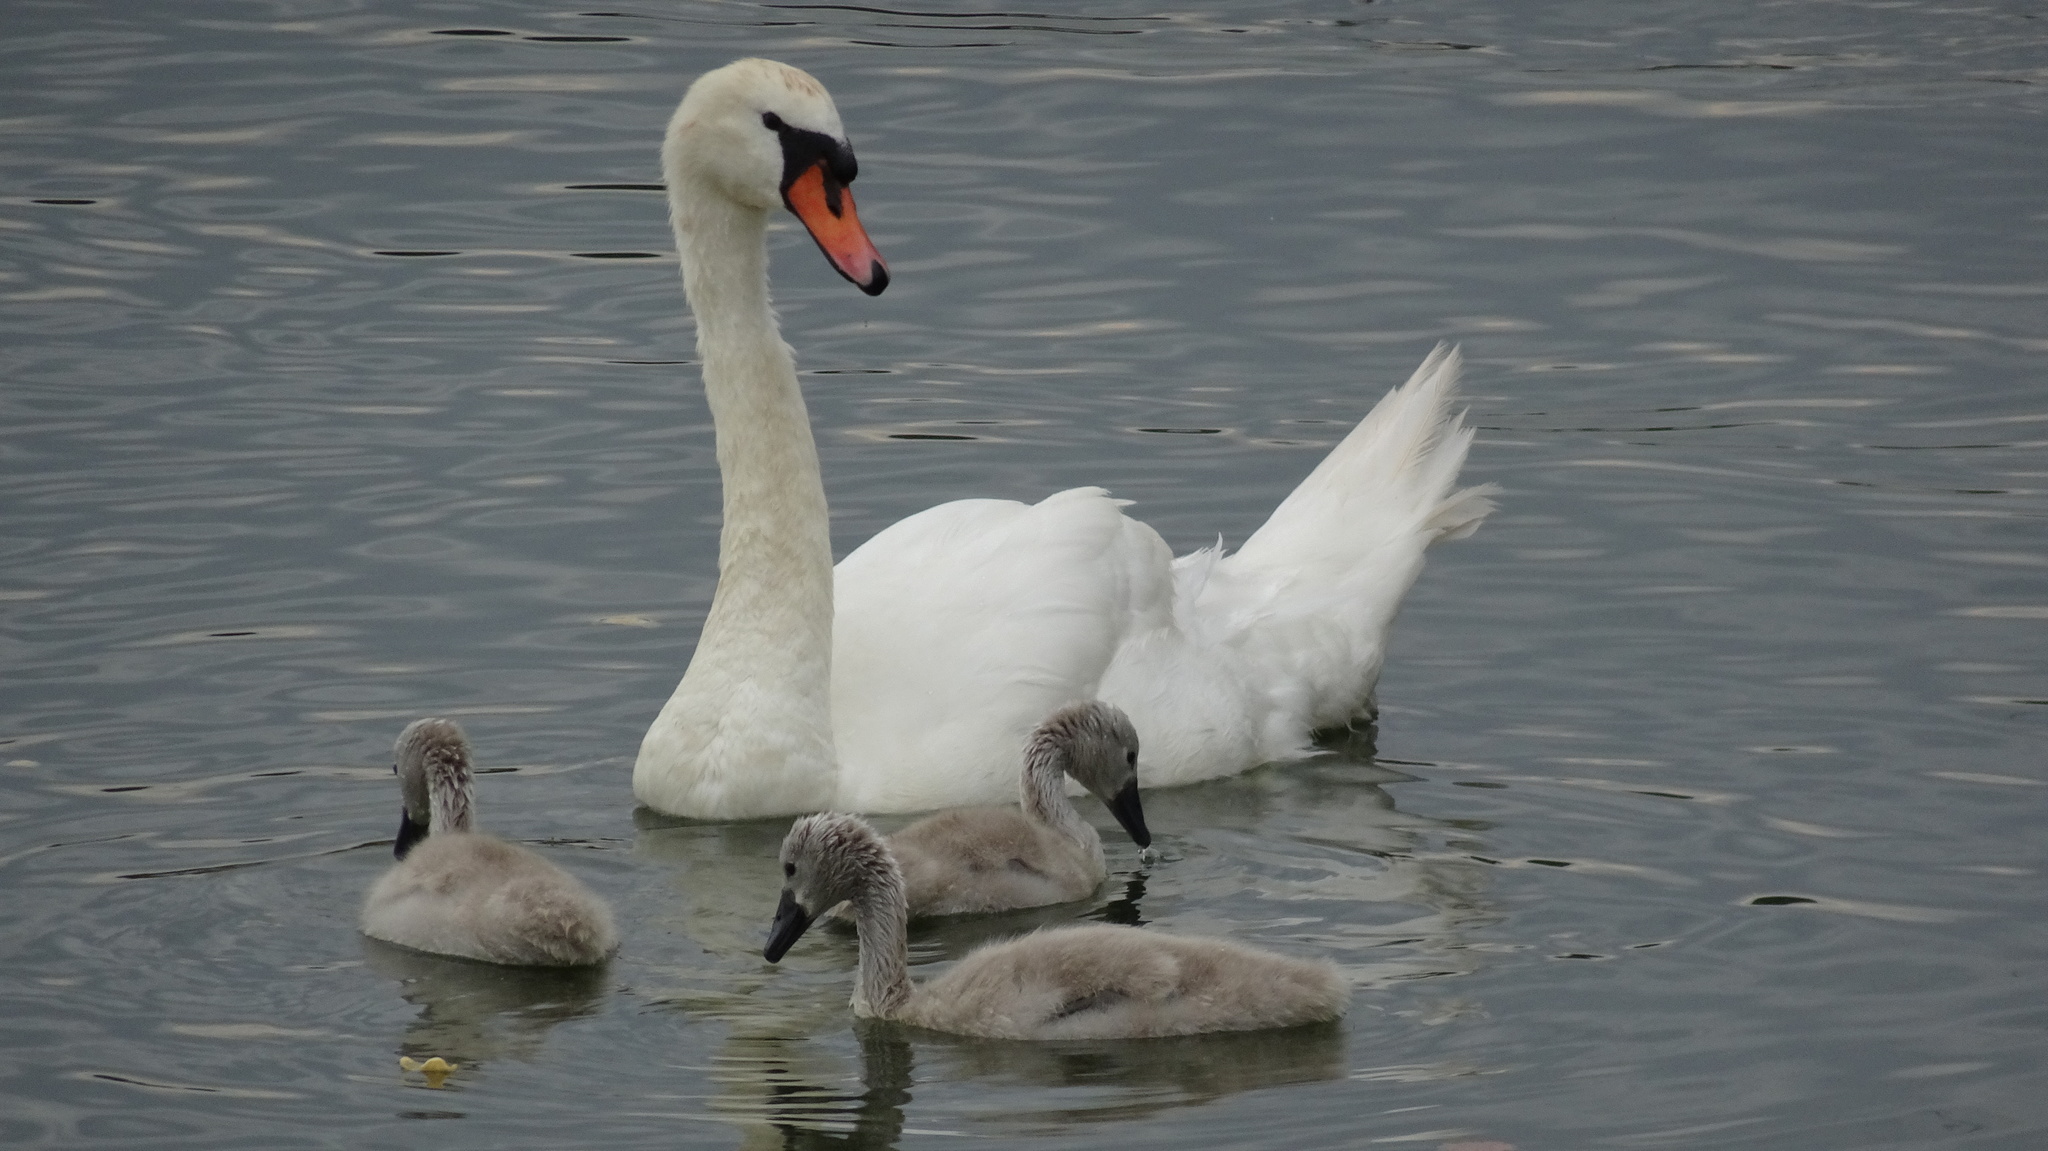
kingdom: Animalia
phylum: Chordata
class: Aves
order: Anseriformes
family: Anatidae
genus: Cygnus
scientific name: Cygnus olor
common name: Mute swan
